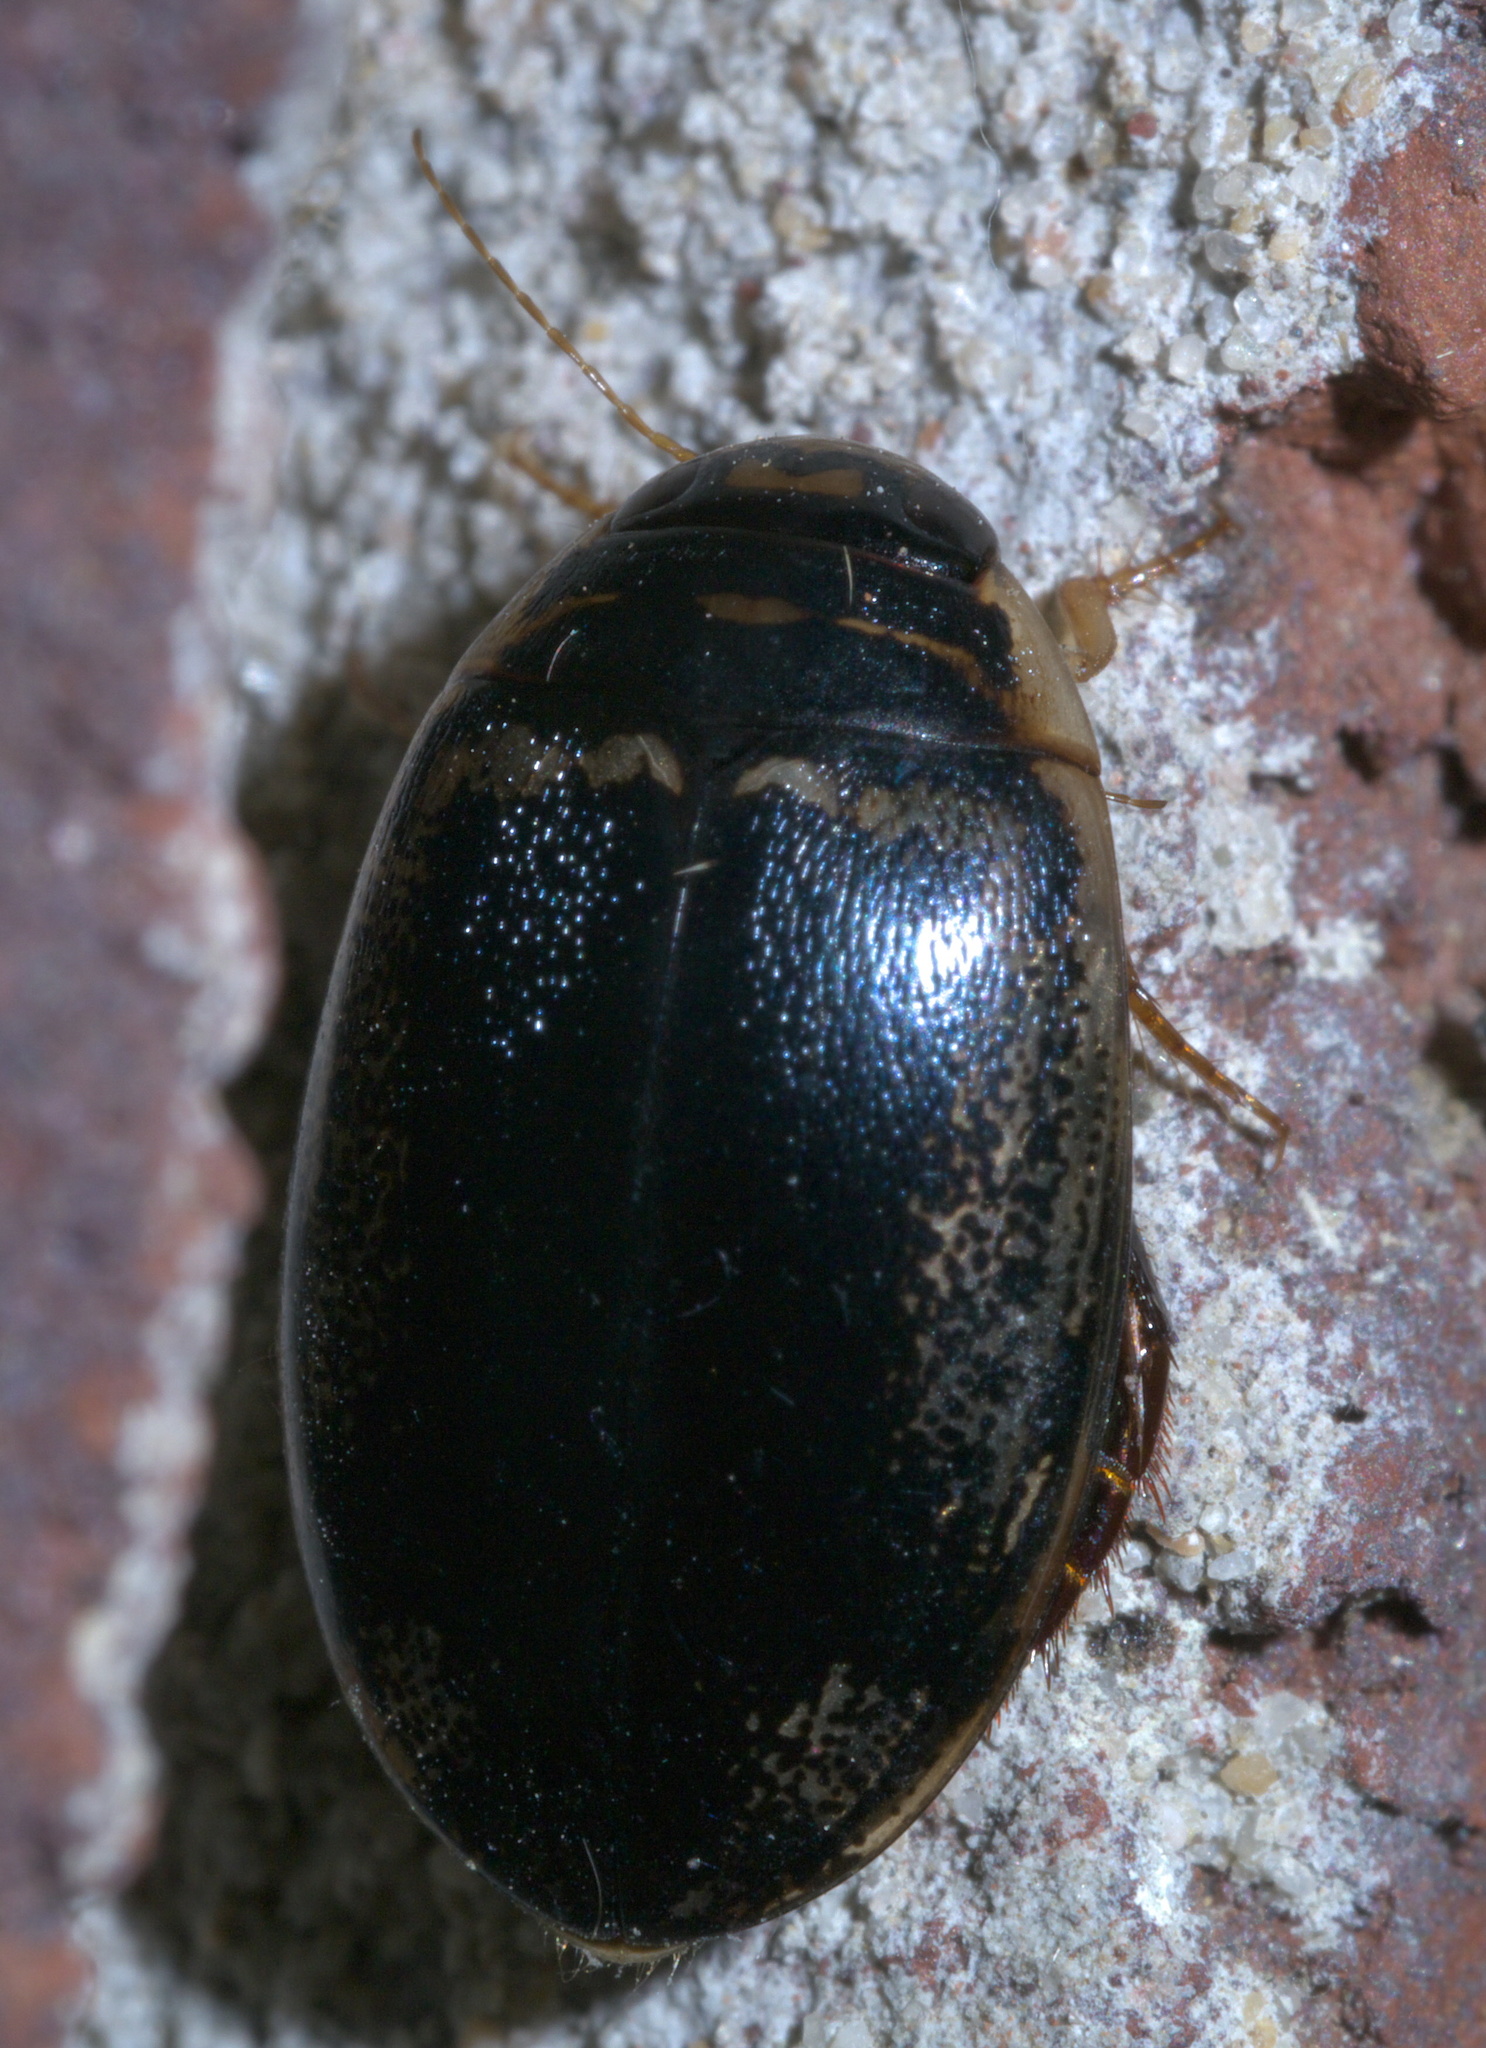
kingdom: Animalia
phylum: Arthropoda
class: Insecta
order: Coleoptera
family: Dytiscidae
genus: Thermonectus
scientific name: Thermonectus basillaris
